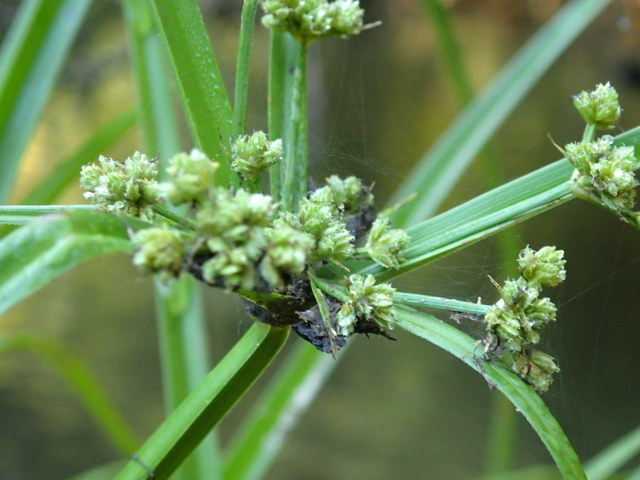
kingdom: Plantae
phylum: Tracheophyta
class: Liliopsida
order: Poales
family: Cyperaceae
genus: Cyperus
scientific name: Cyperus pseudovegetus
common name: Marsh flat sedge
